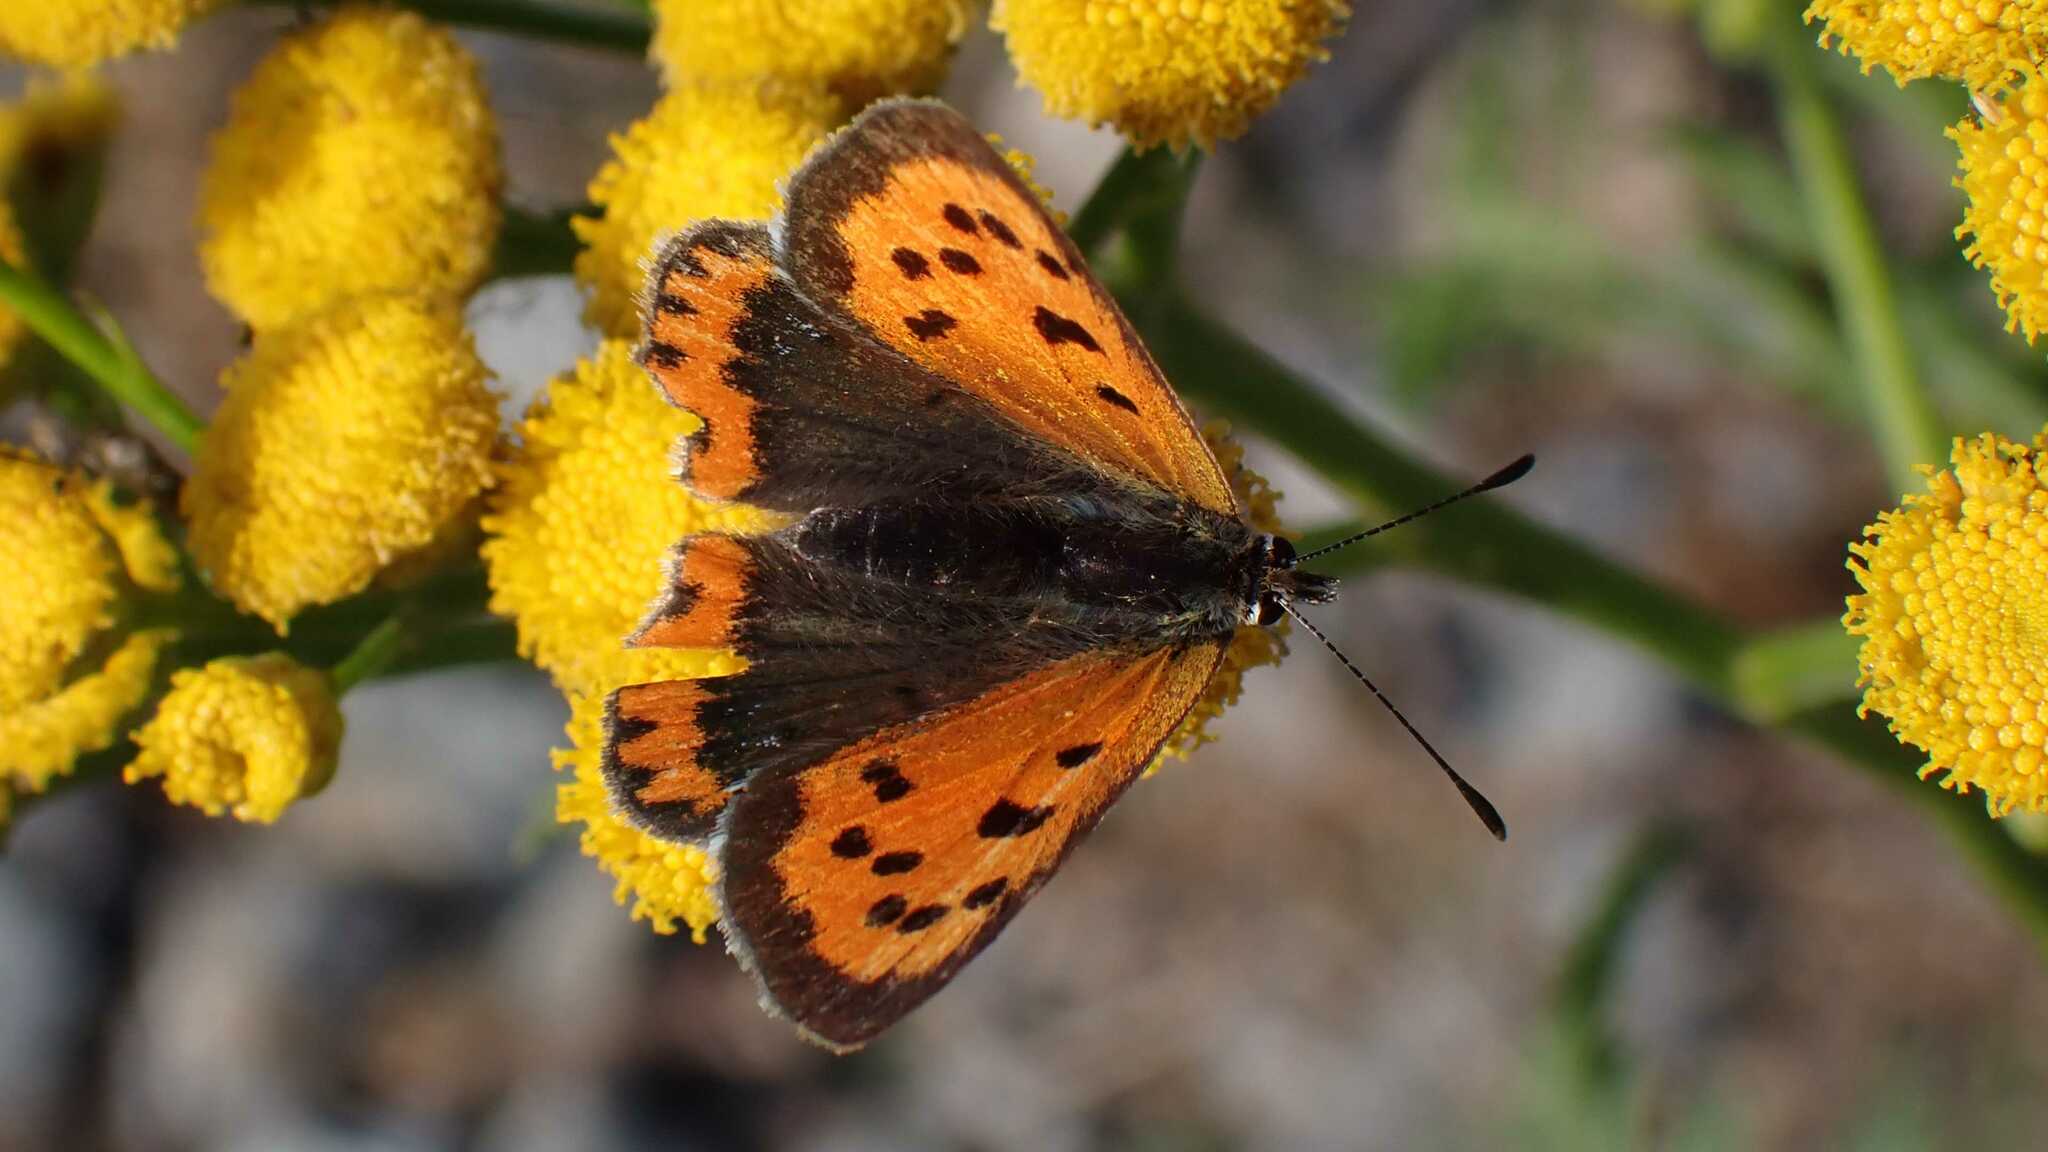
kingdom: Animalia
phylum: Arthropoda
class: Insecta
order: Lepidoptera
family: Lycaenidae
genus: Lycaena
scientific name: Lycaena phlaeas
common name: Small copper
